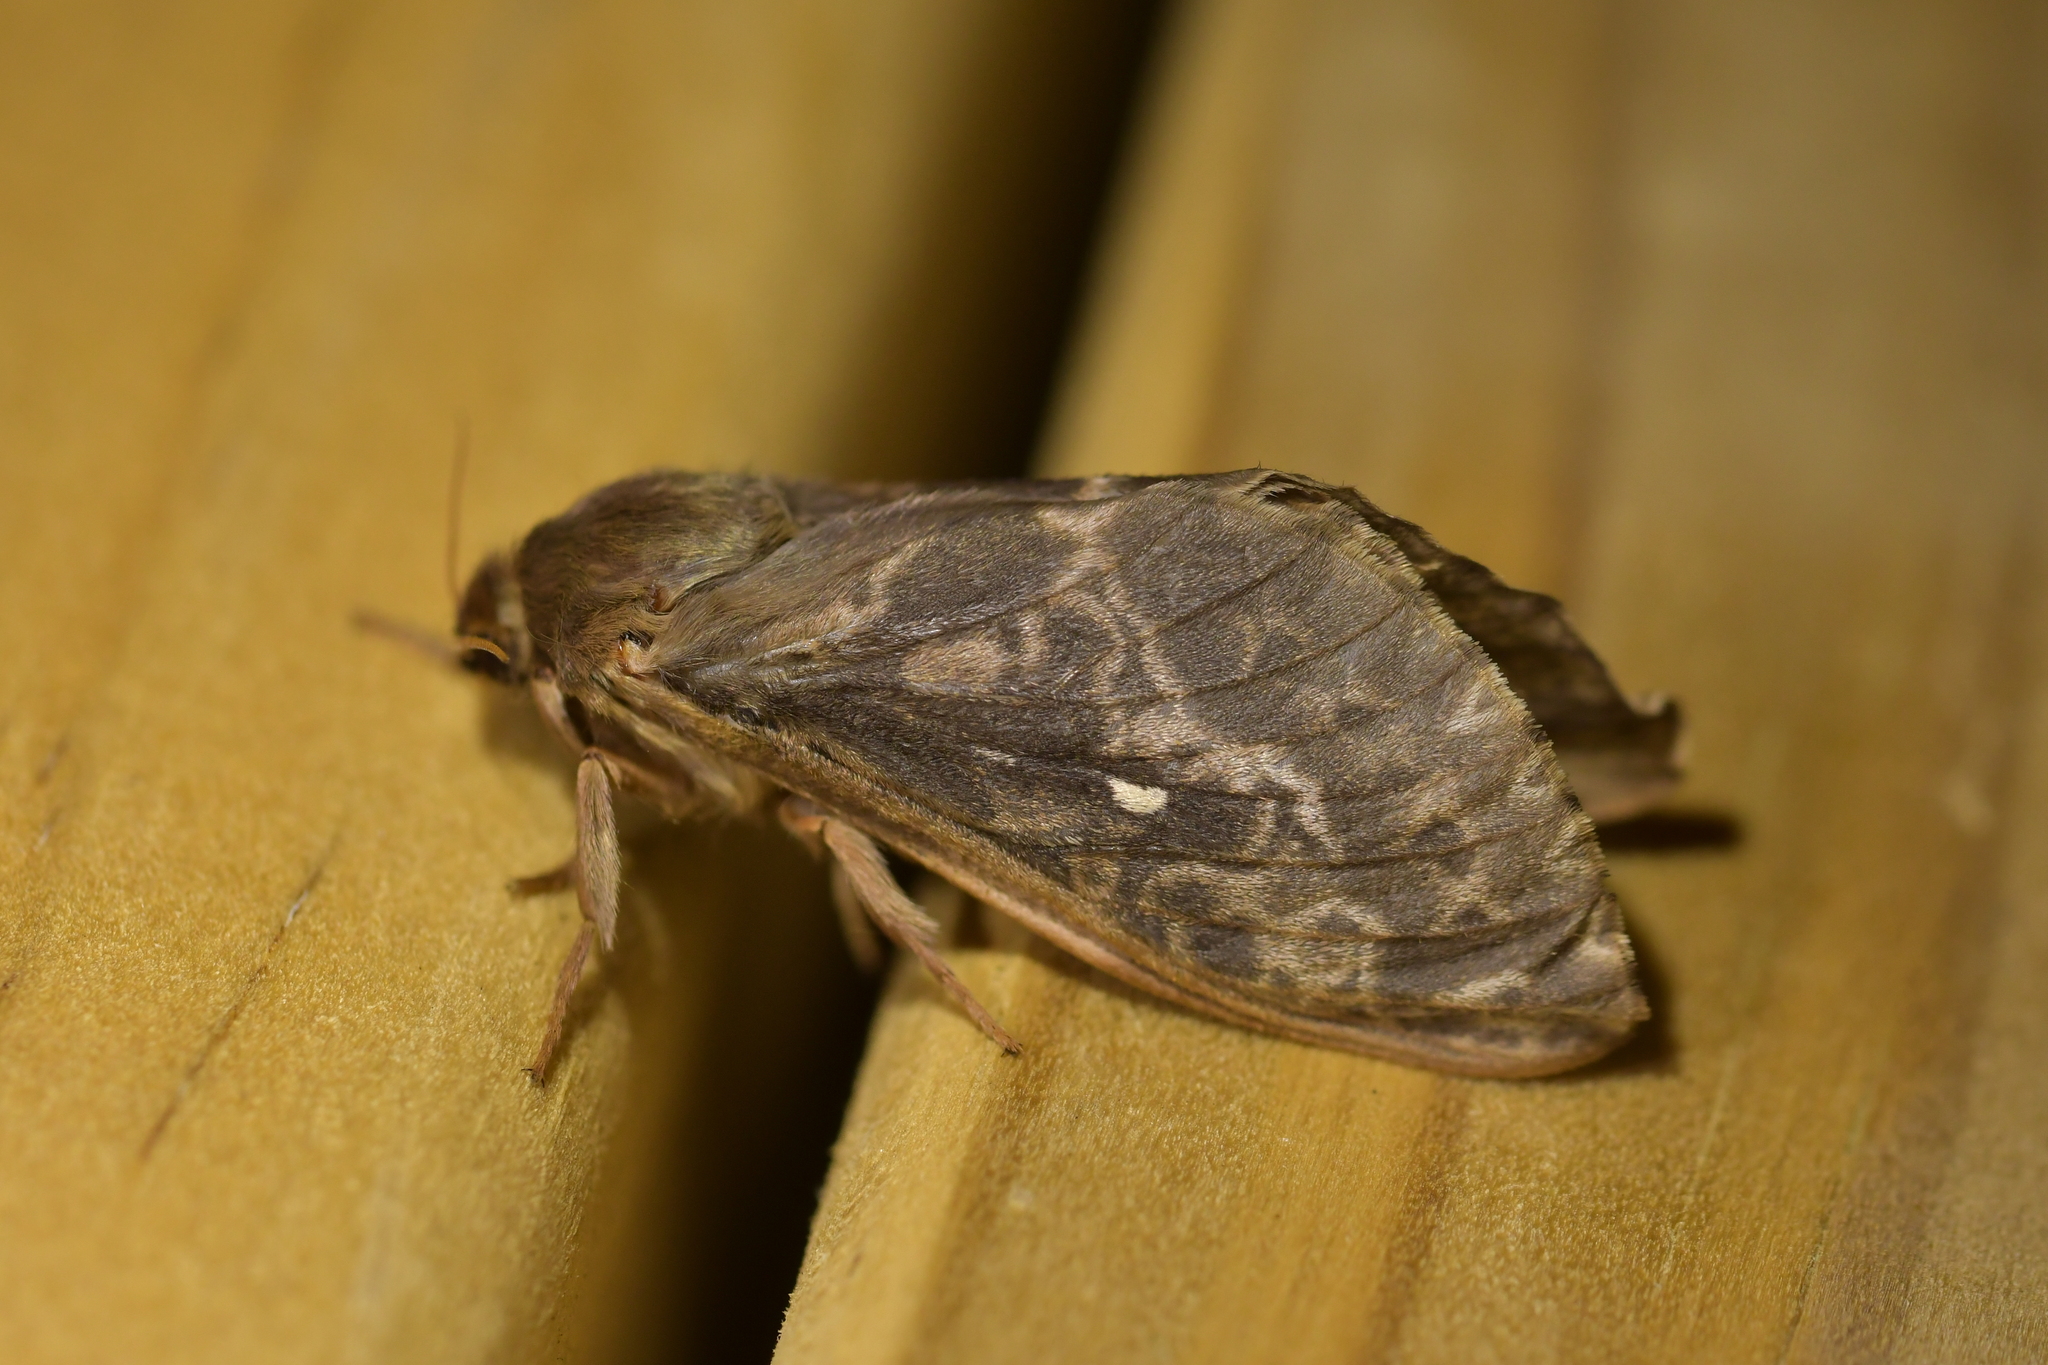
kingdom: Animalia
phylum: Arthropoda
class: Insecta
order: Lepidoptera
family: Hepialidae
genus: Wiseana
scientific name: Wiseana cervinata
